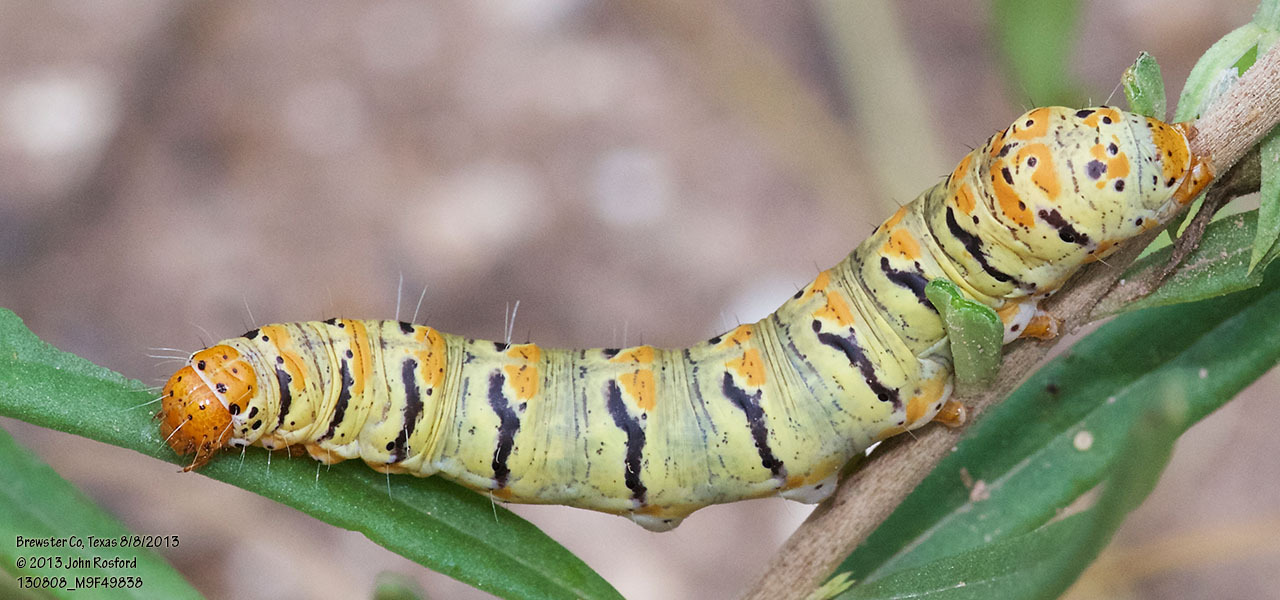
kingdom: Animalia
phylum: Arthropoda
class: Insecta
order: Lepidoptera
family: Noctuidae
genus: Euscirrhopterus
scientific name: Euscirrhopterus gloveri
